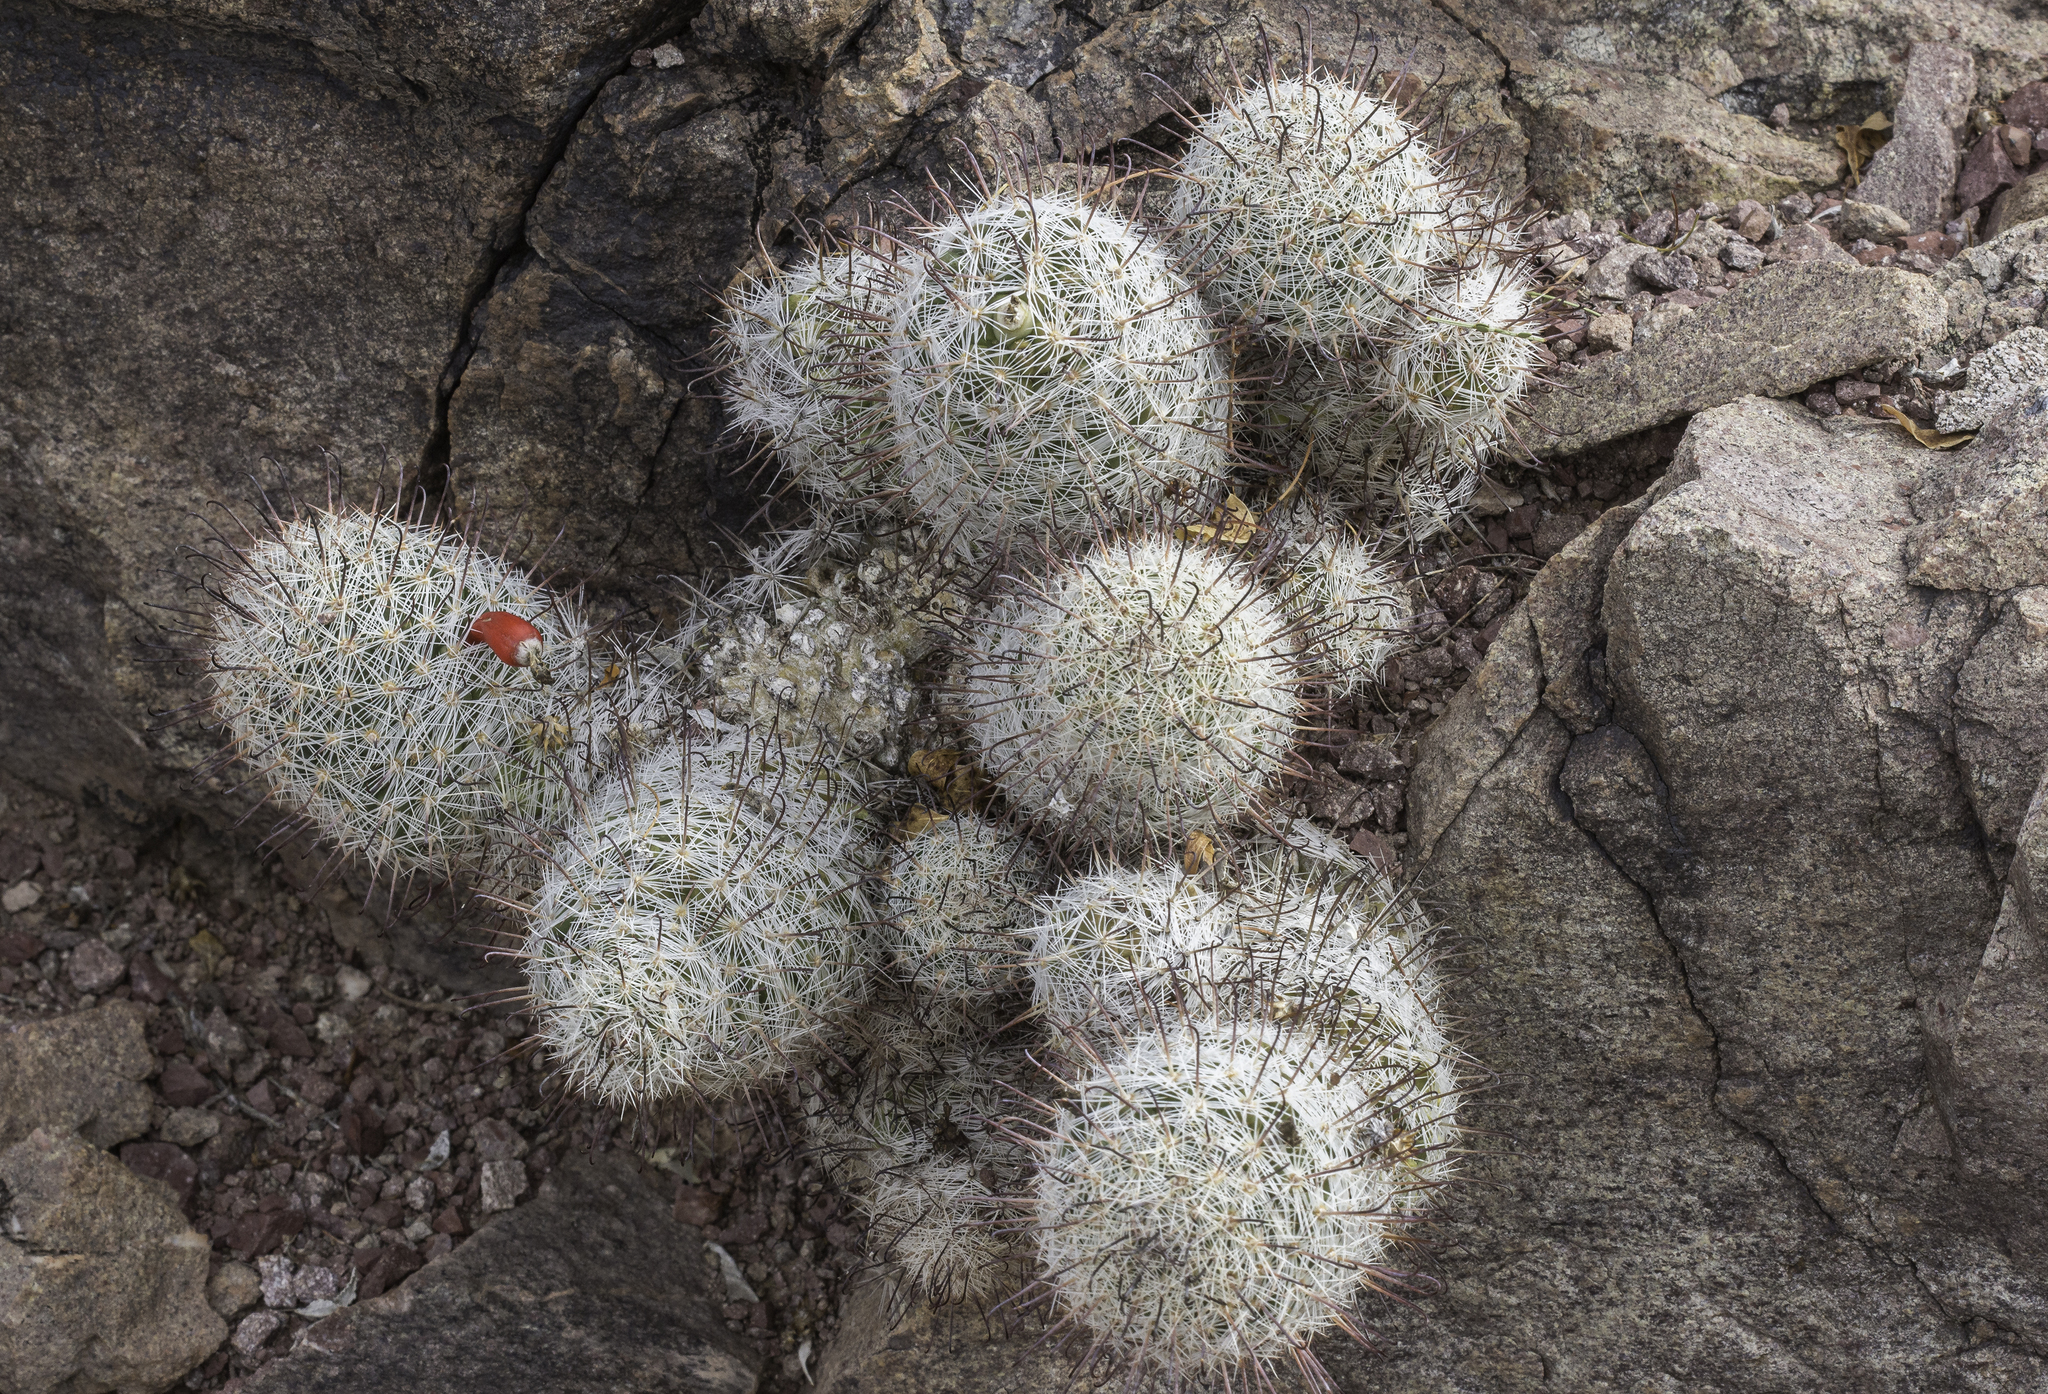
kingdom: Plantae
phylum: Tracheophyta
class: Magnoliopsida
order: Caryophyllales
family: Cactaceae
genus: Cochemiea
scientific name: Cochemiea grahamii
